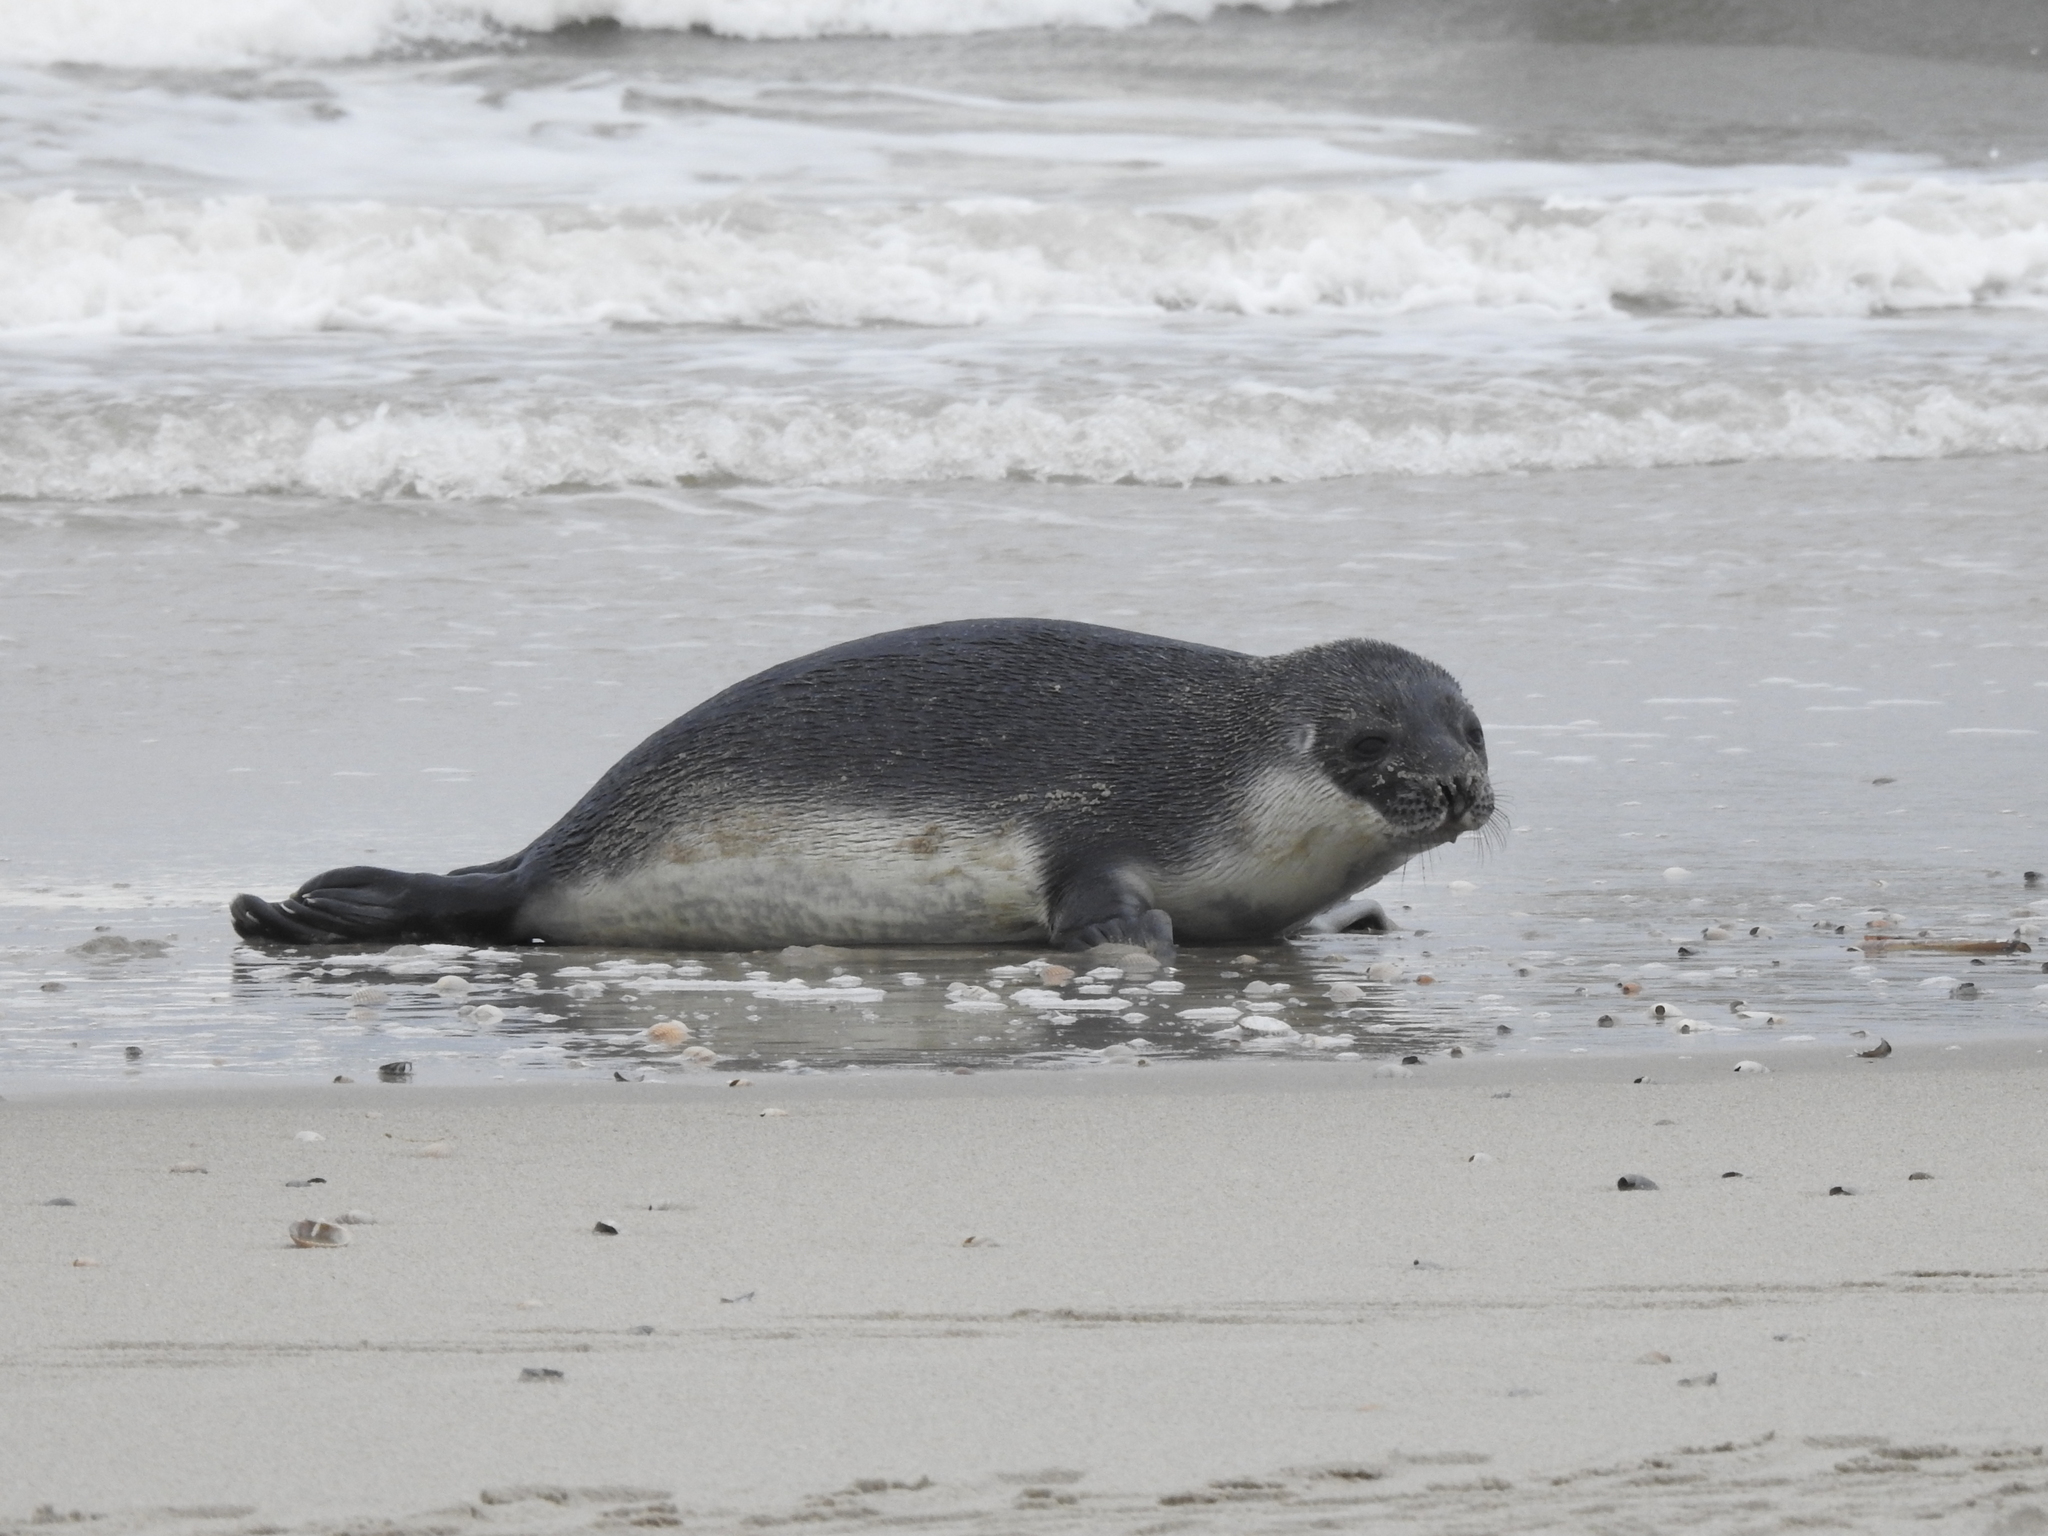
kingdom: Animalia
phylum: Chordata
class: Mammalia
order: Carnivora
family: Phocidae
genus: Cystophora
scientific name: Cystophora cristata
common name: Hooded seal
